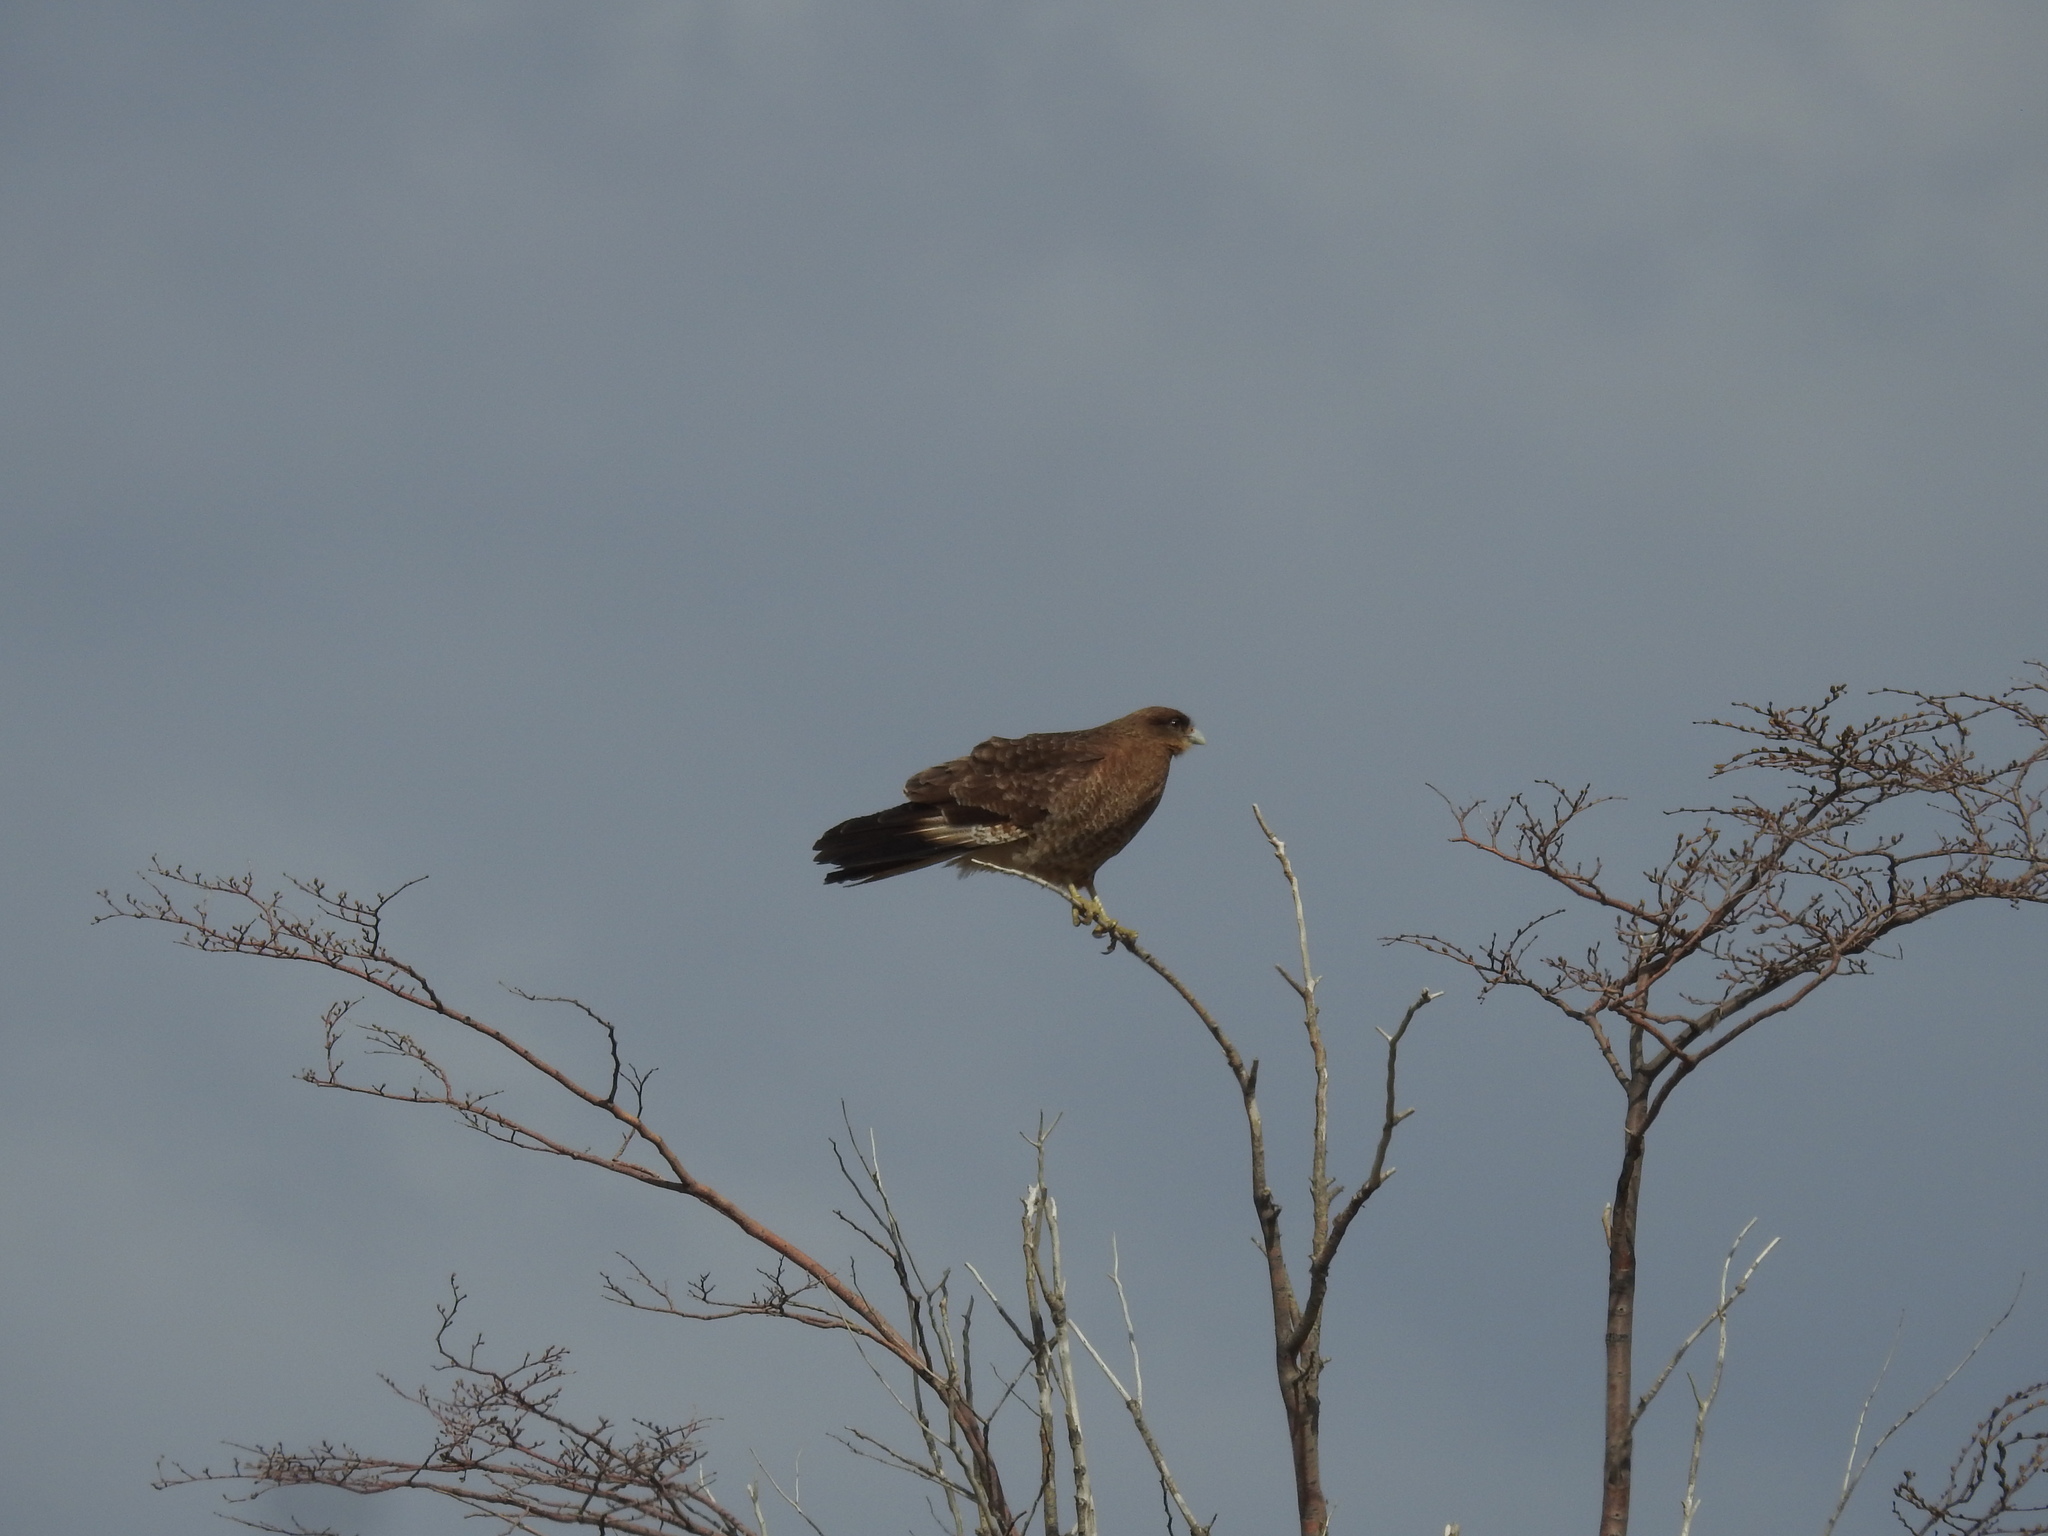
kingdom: Animalia
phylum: Chordata
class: Aves
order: Falconiformes
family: Falconidae
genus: Daptrius
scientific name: Daptrius
